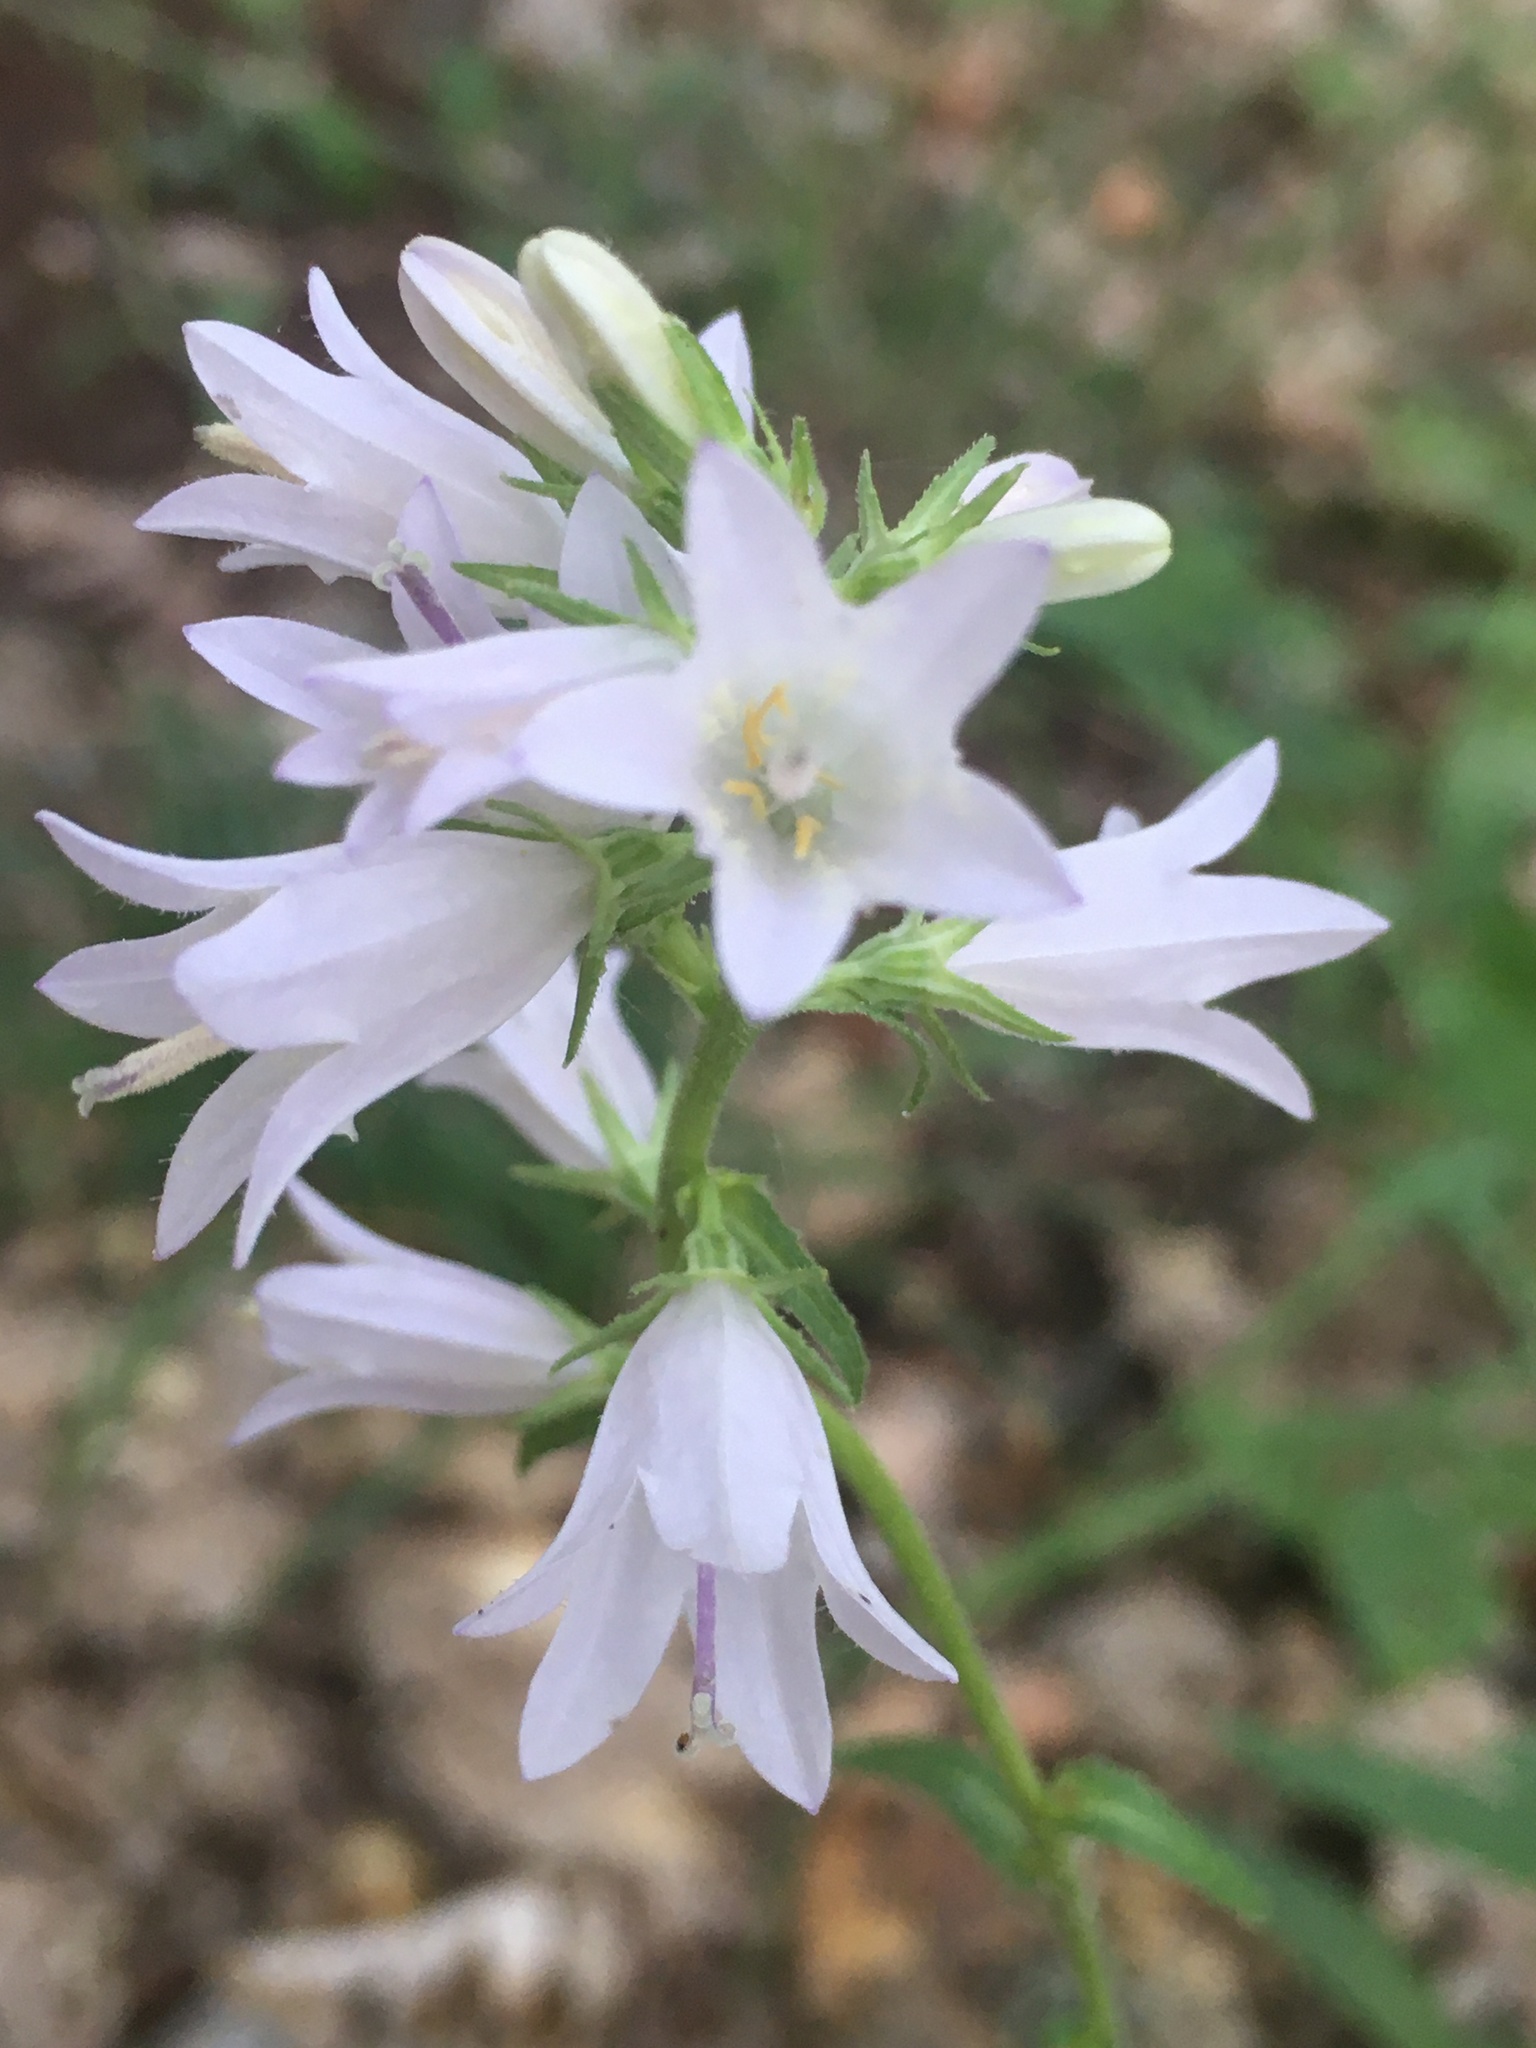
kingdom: Plantae
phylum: Tracheophyta
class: Magnoliopsida
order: Asterales
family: Campanulaceae
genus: Campanula
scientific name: Campanula bononiensis
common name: Pale bellflower
